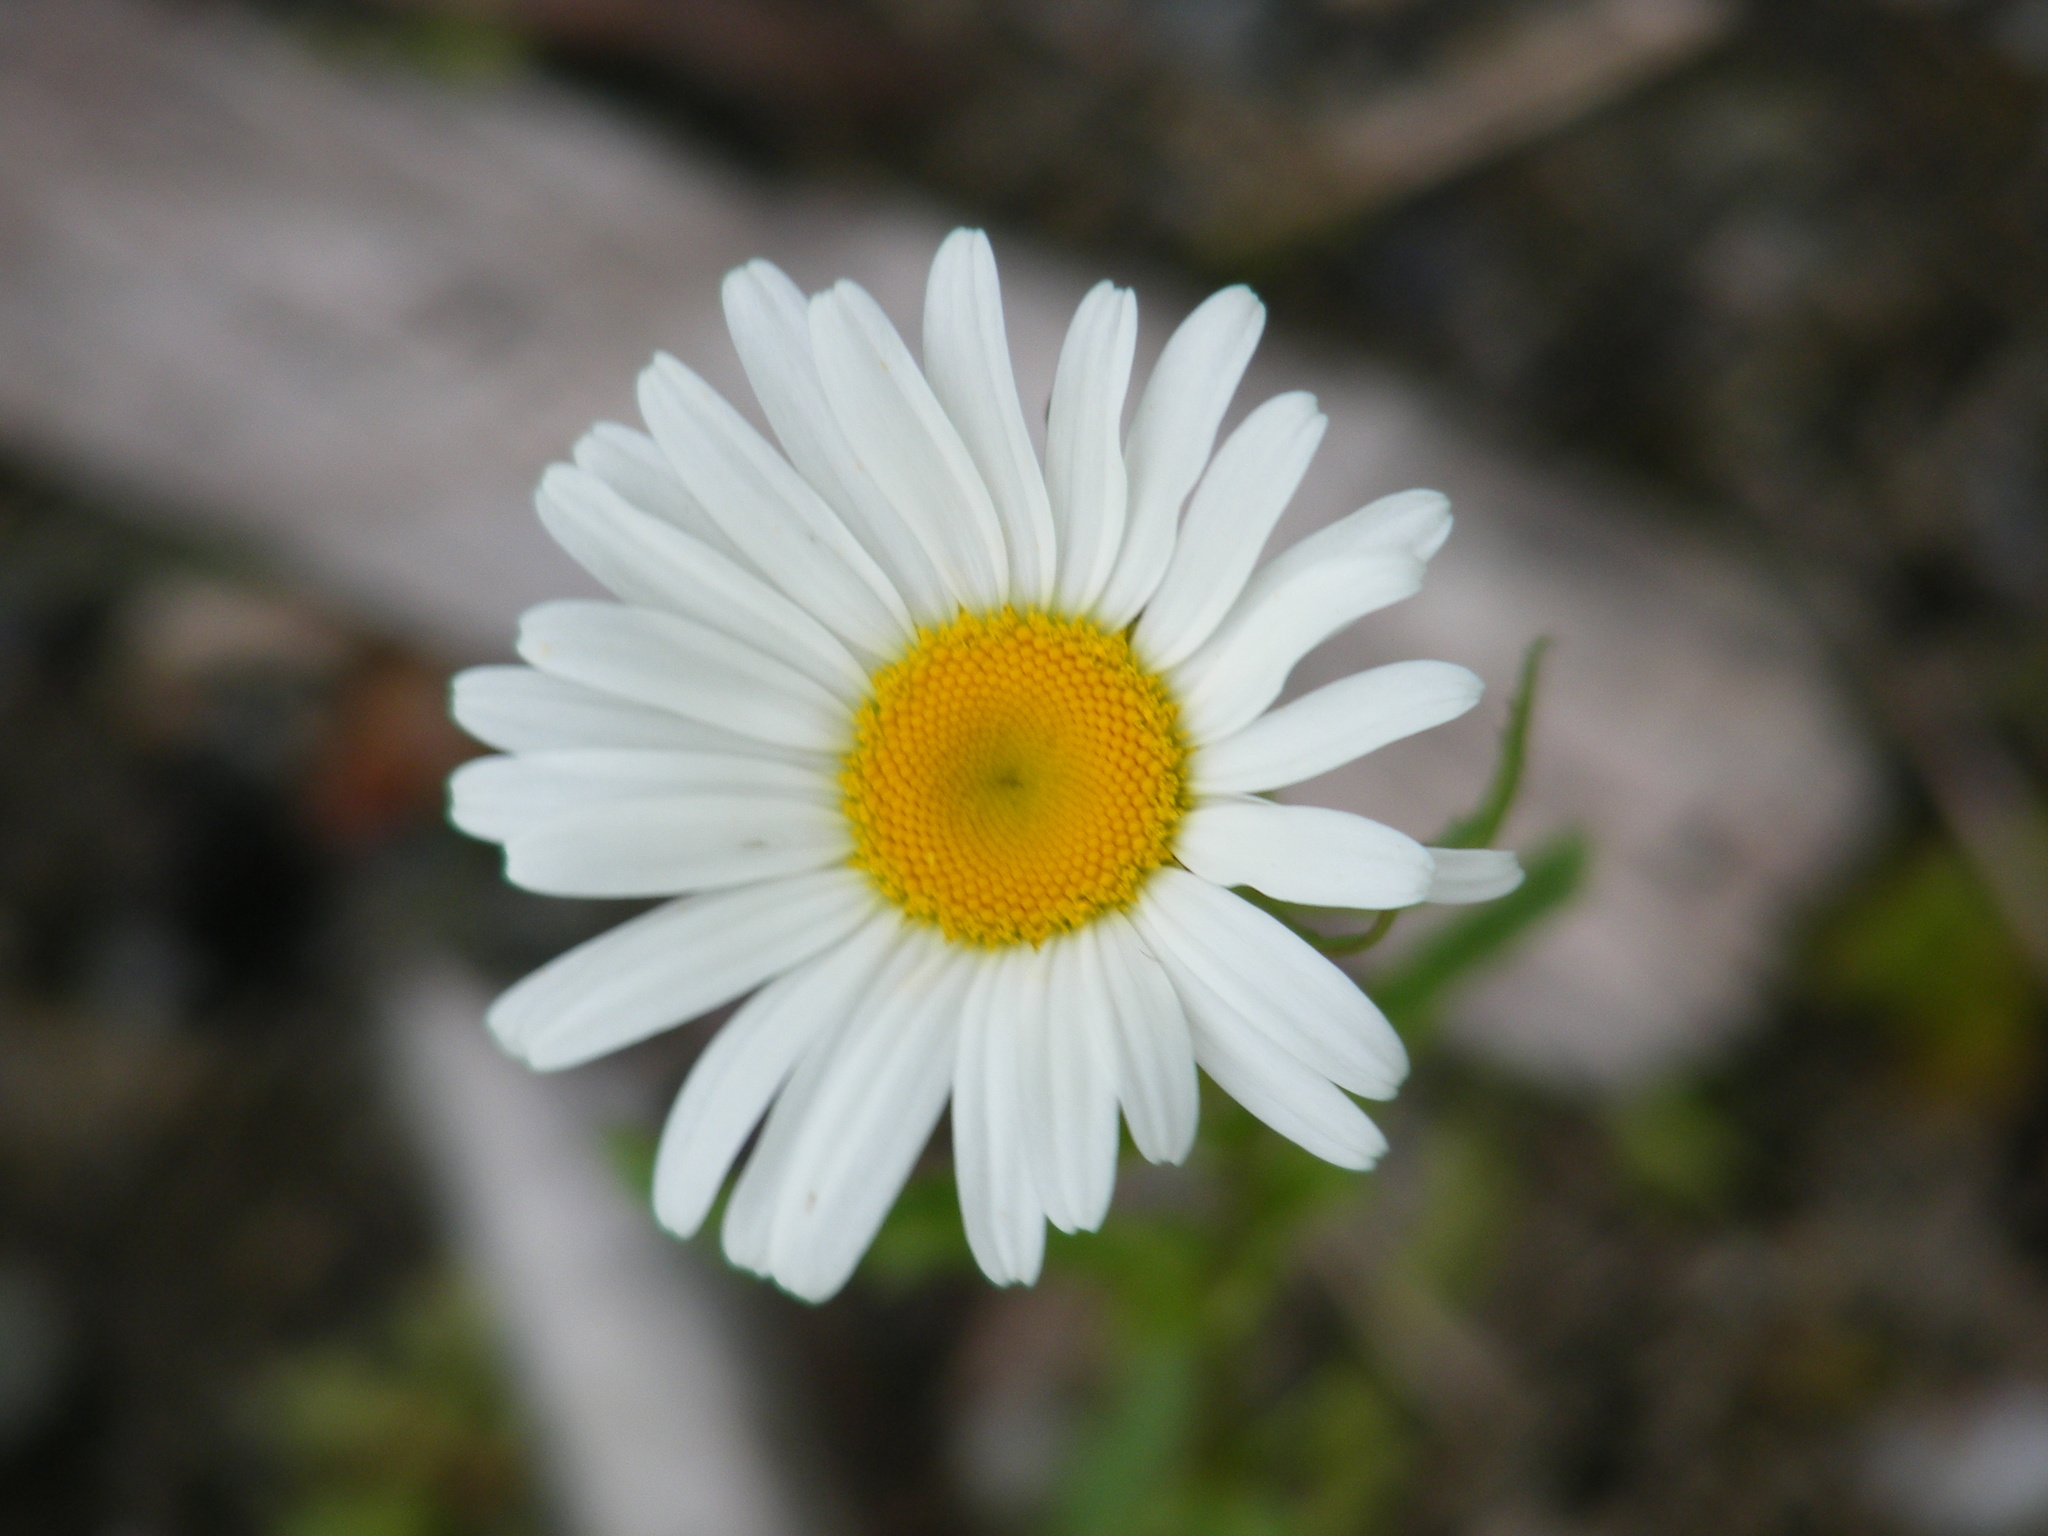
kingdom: Plantae
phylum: Tracheophyta
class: Magnoliopsida
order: Asterales
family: Asteraceae
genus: Leucanthemum
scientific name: Leucanthemum vulgare
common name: Oxeye daisy
